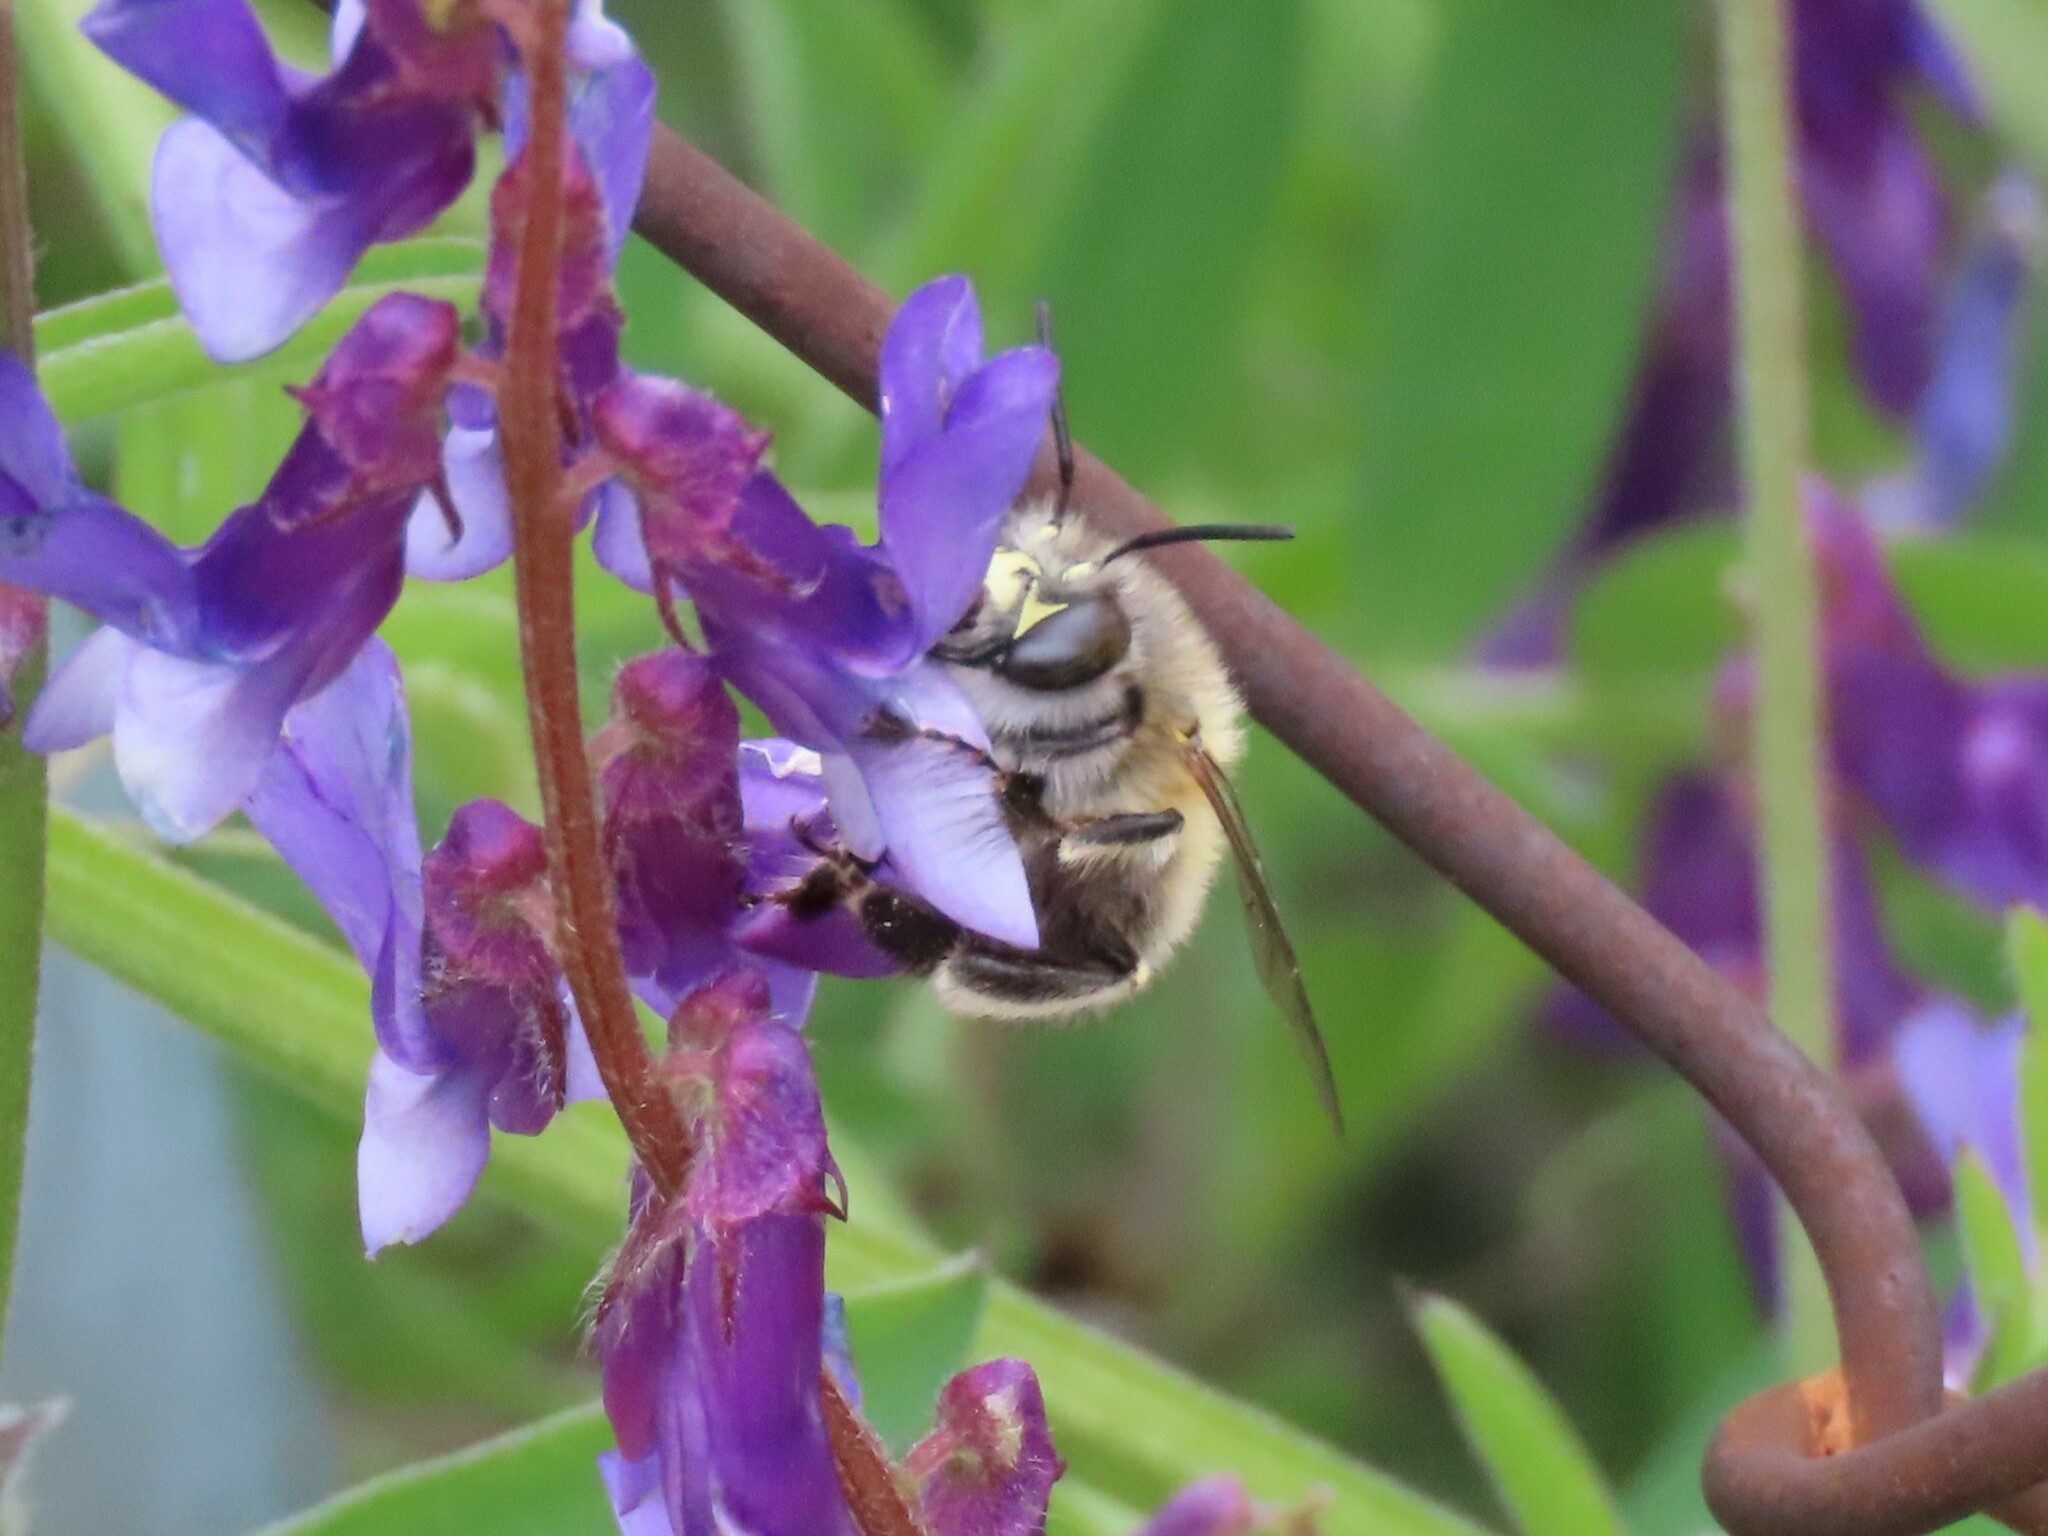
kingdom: Animalia
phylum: Arthropoda
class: Insecta
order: Hymenoptera
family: Apidae
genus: Anthophora
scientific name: Anthophora plumipes
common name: Hairy-footed flower bee
